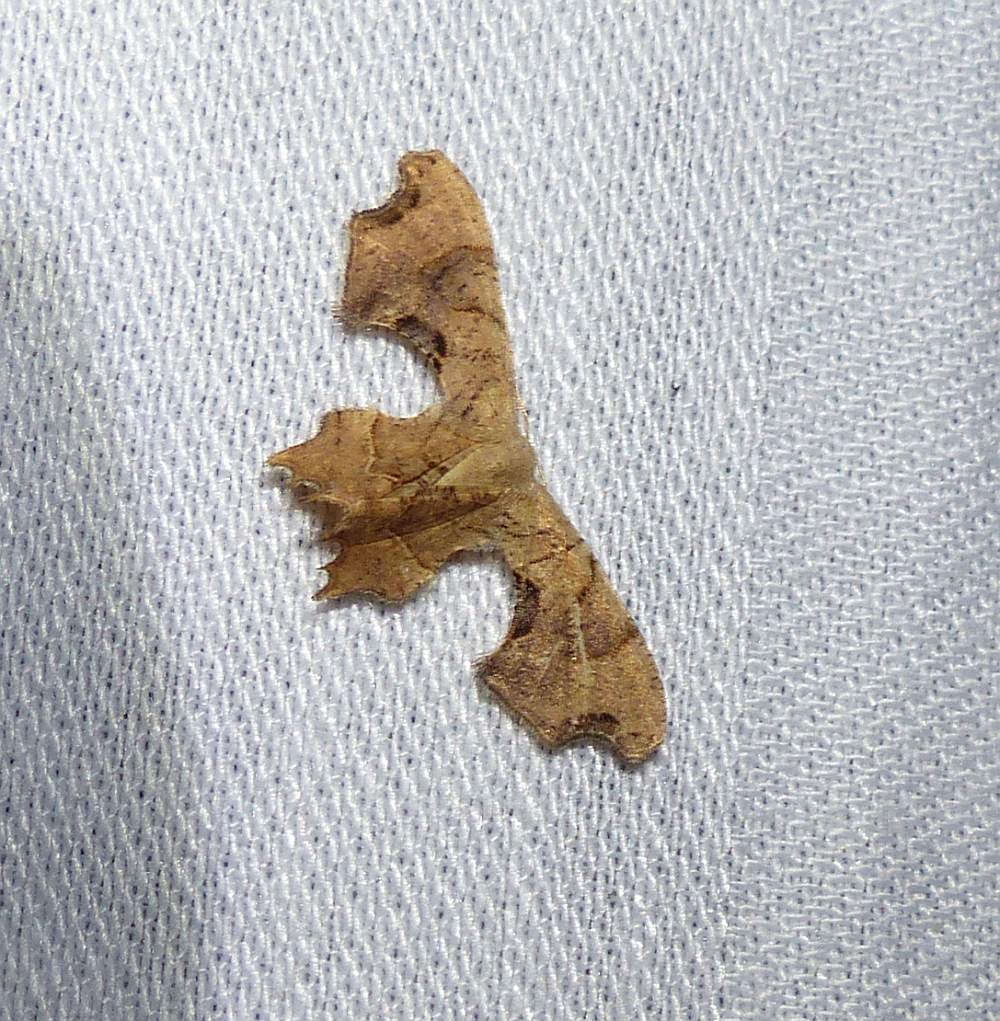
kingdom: Animalia
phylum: Arthropoda
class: Insecta
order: Lepidoptera
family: Uraniidae
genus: Epiplema
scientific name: Epiplema Calledapteryx dryopterata
